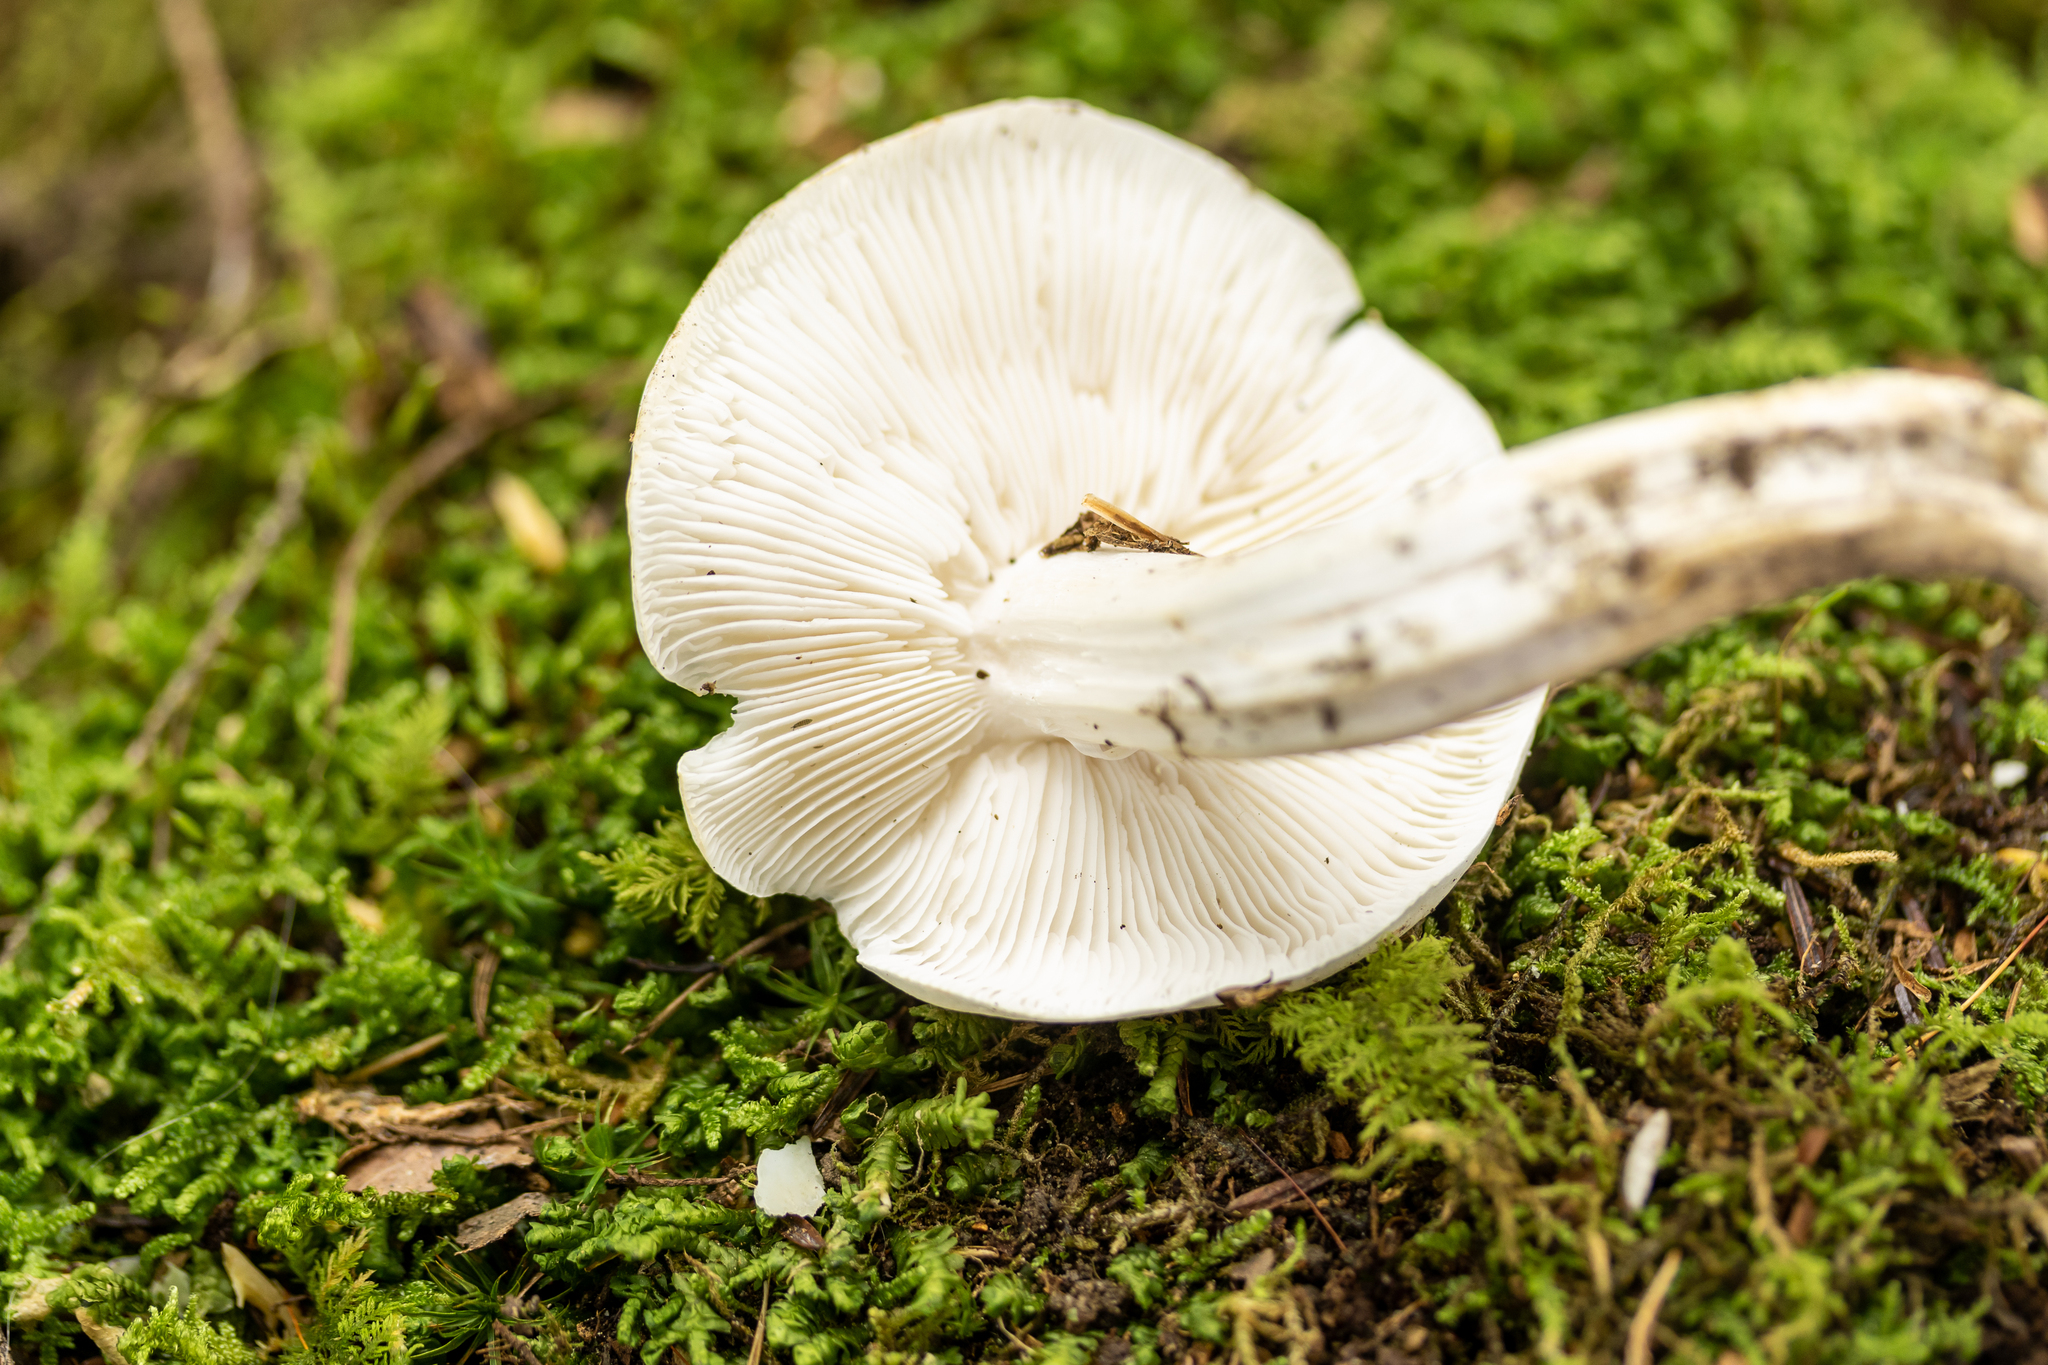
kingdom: Fungi
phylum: Basidiomycota
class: Agaricomycetes
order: Agaricales
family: Tricholomataceae
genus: Tricholoma
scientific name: Tricholoma subresplendens
